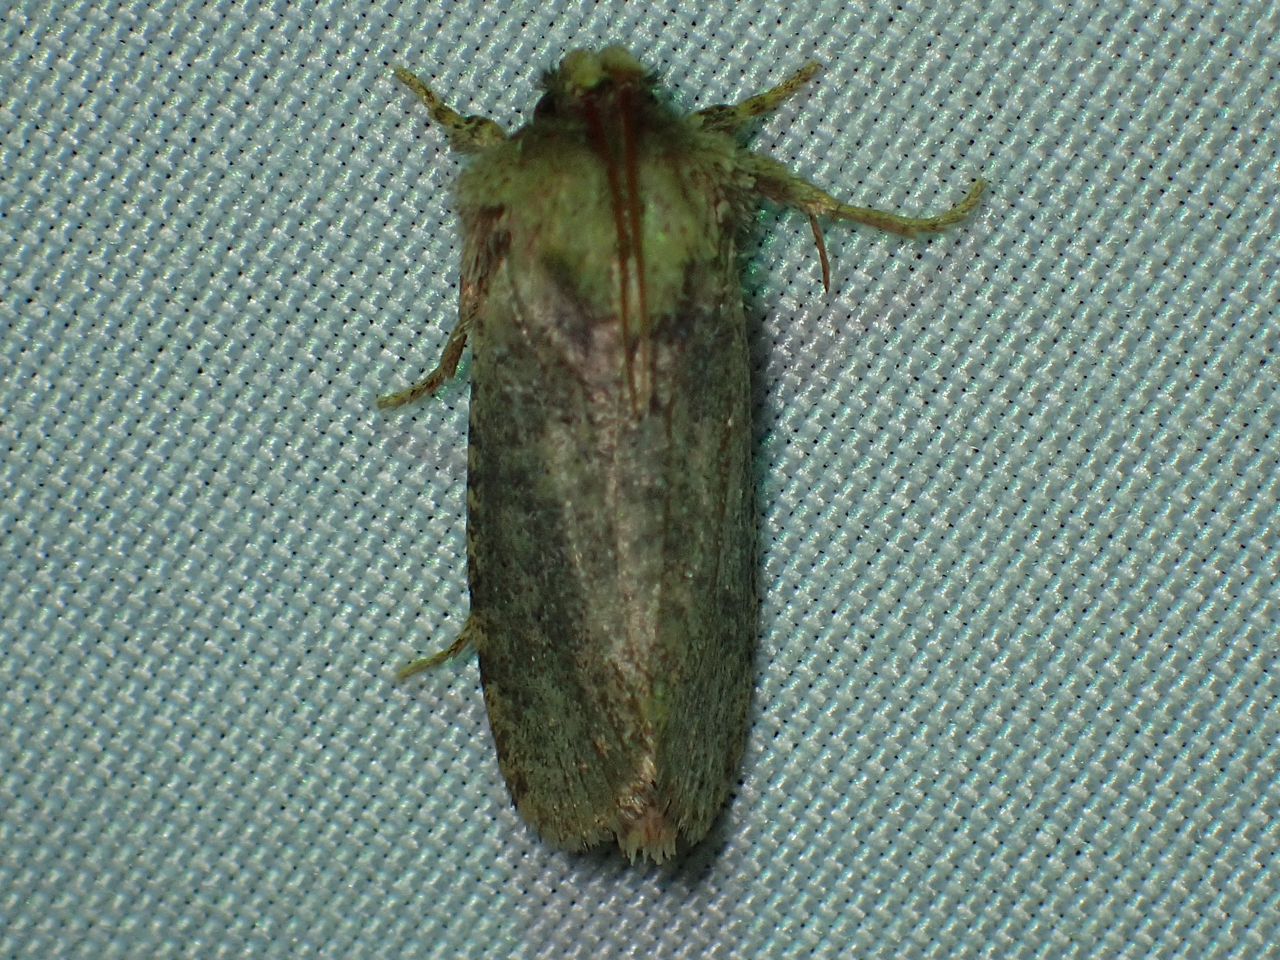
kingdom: Animalia
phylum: Arthropoda
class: Insecta
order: Lepidoptera
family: Tineidae
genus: Acrolophus
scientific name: Acrolophus arcanella
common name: Arcane grass tubeworm moth
